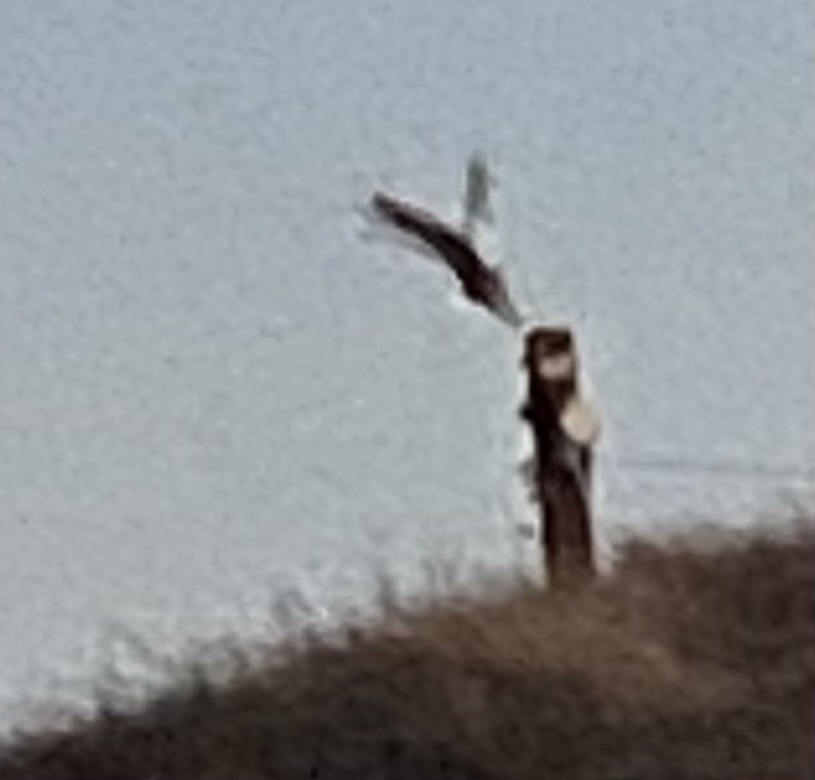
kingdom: Animalia
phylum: Chordata
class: Aves
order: Strigiformes
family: Strigidae
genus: Bubo
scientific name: Bubo virginianus
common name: Great horned owl
